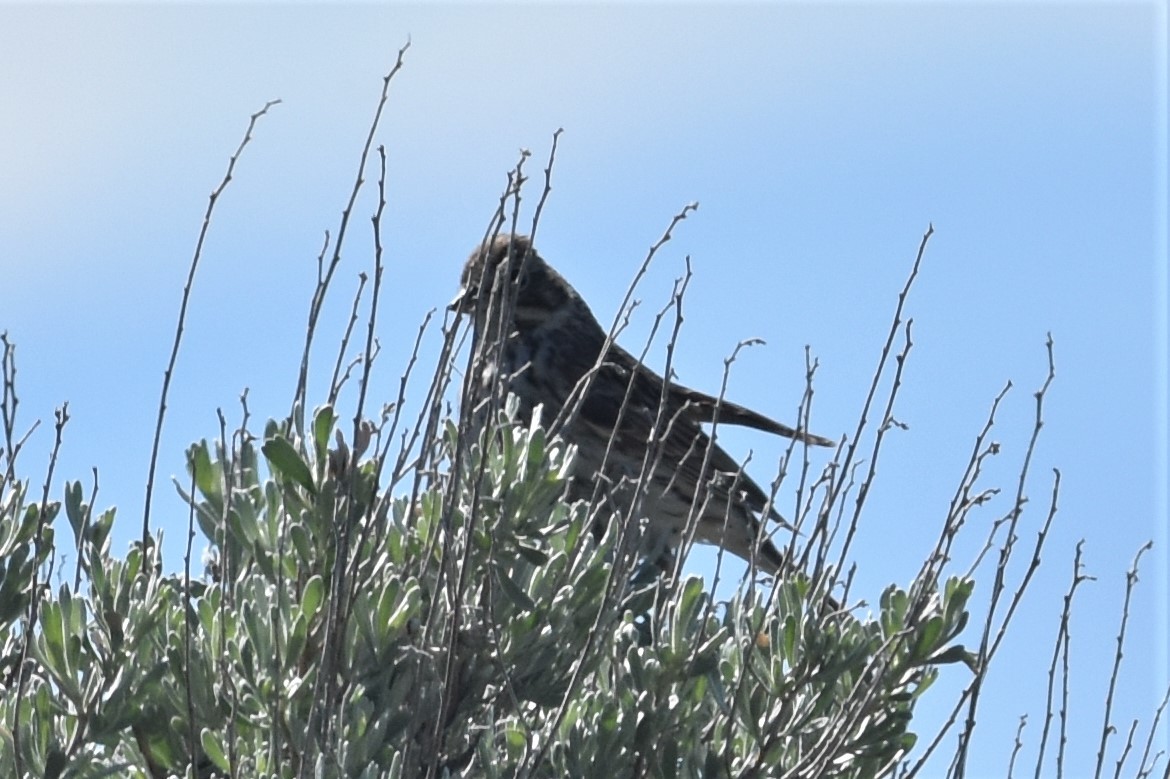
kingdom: Animalia
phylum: Chordata
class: Aves
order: Passeriformes
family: Passerellidae
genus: Pooecetes
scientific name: Pooecetes gramineus
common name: Vesper sparrow
